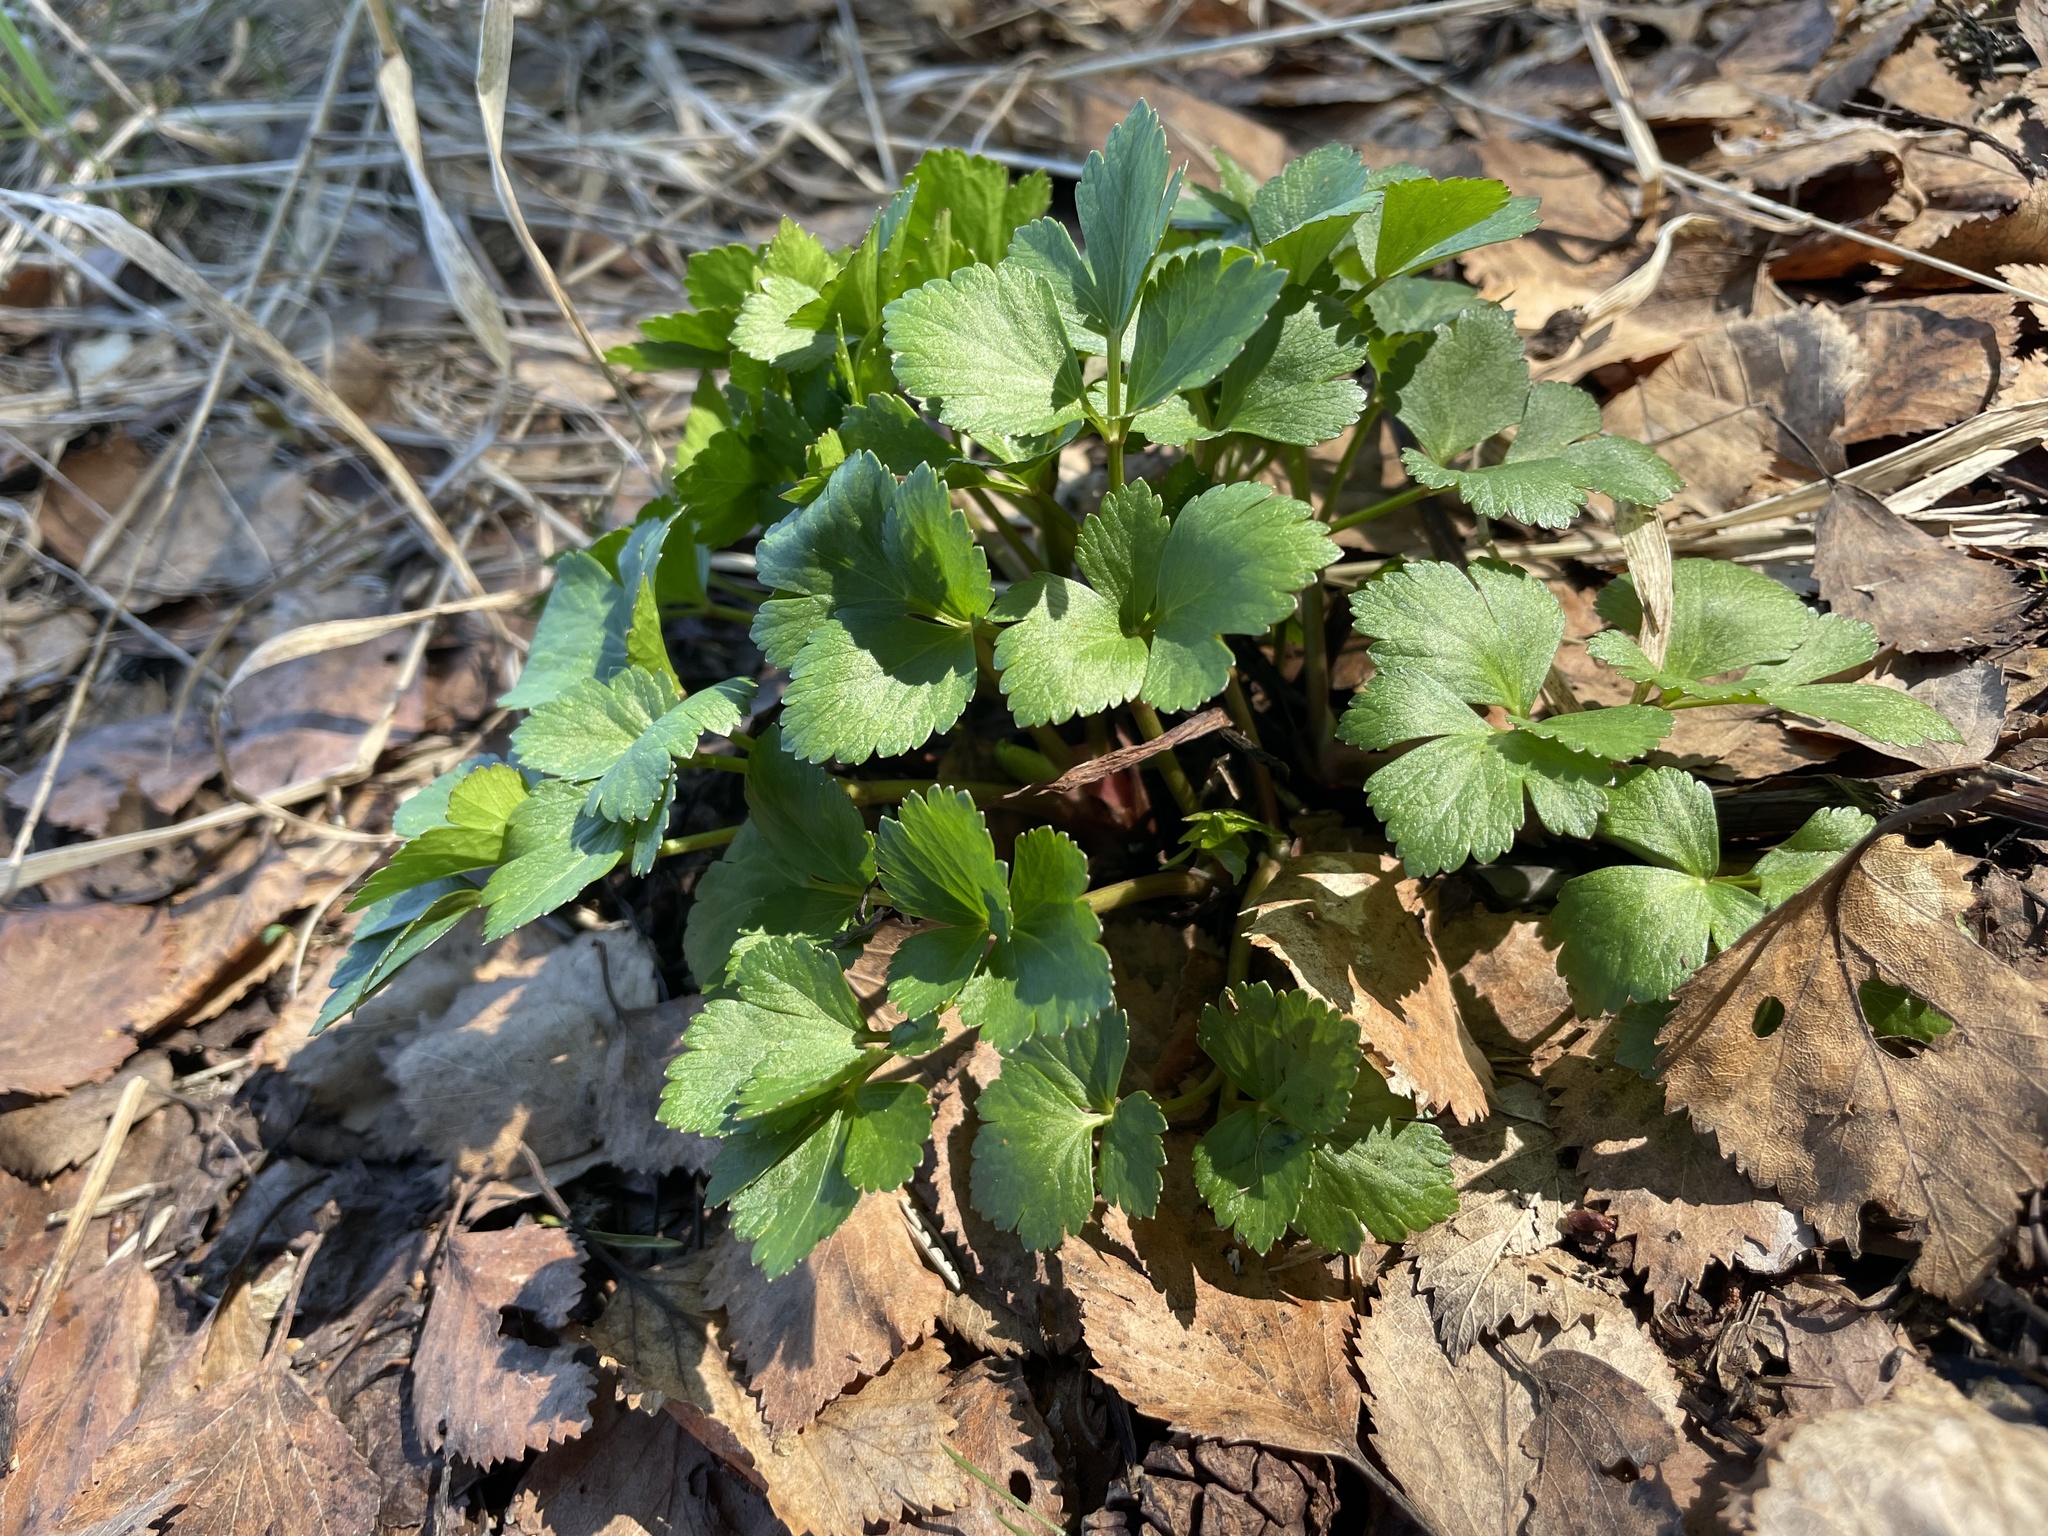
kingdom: Plantae
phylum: Tracheophyta
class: Magnoliopsida
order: Apiales
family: Apiaceae
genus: Ligusticum
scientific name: Ligusticum scothicum
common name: Beach lovage
